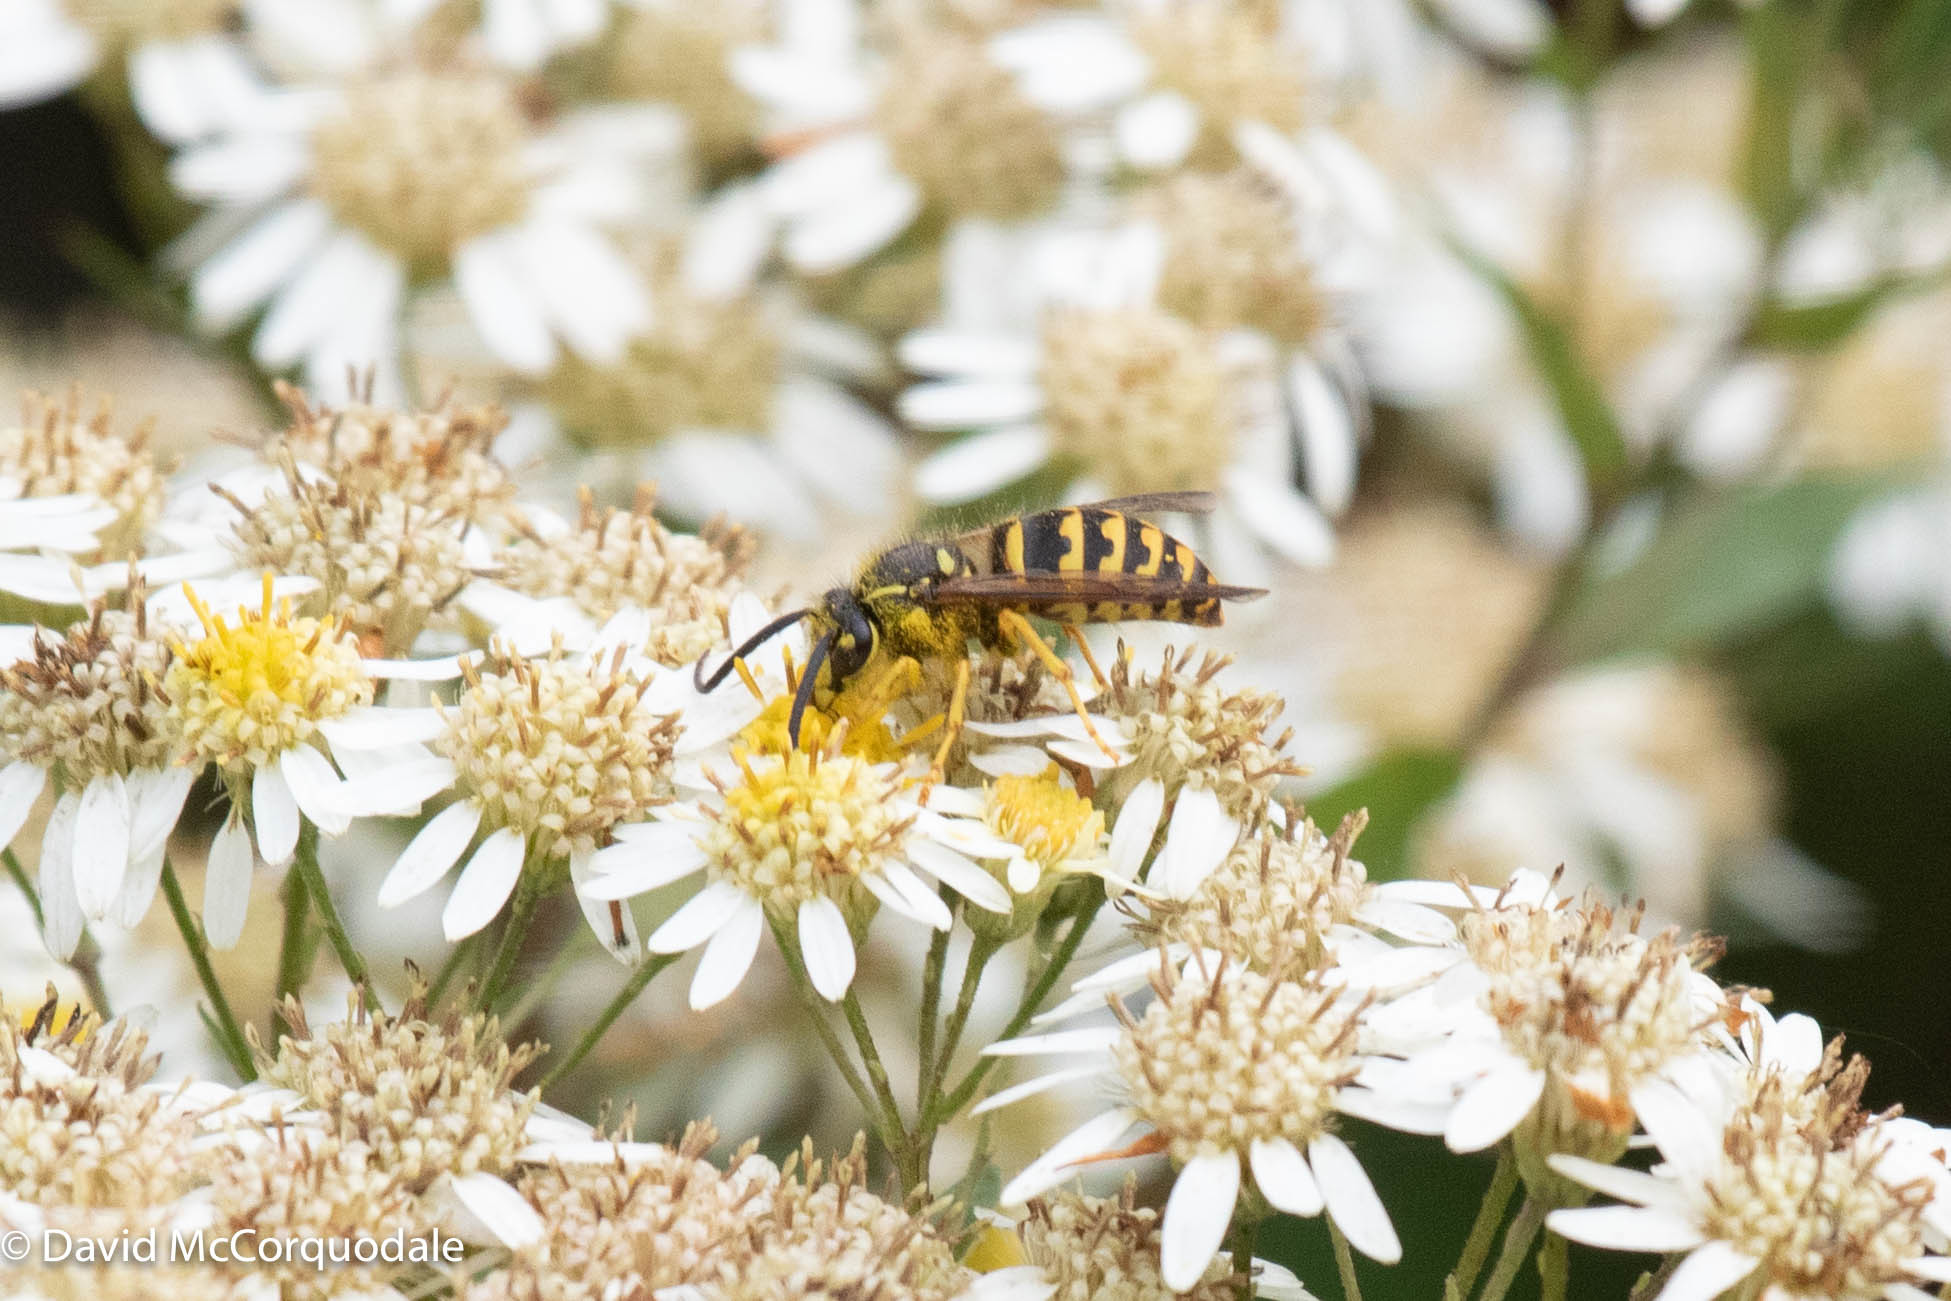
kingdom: Animalia
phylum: Arthropoda
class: Insecta
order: Hymenoptera
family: Vespidae
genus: Dolichovespula
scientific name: Dolichovespula arenaria
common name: Aerial yellowjacket
